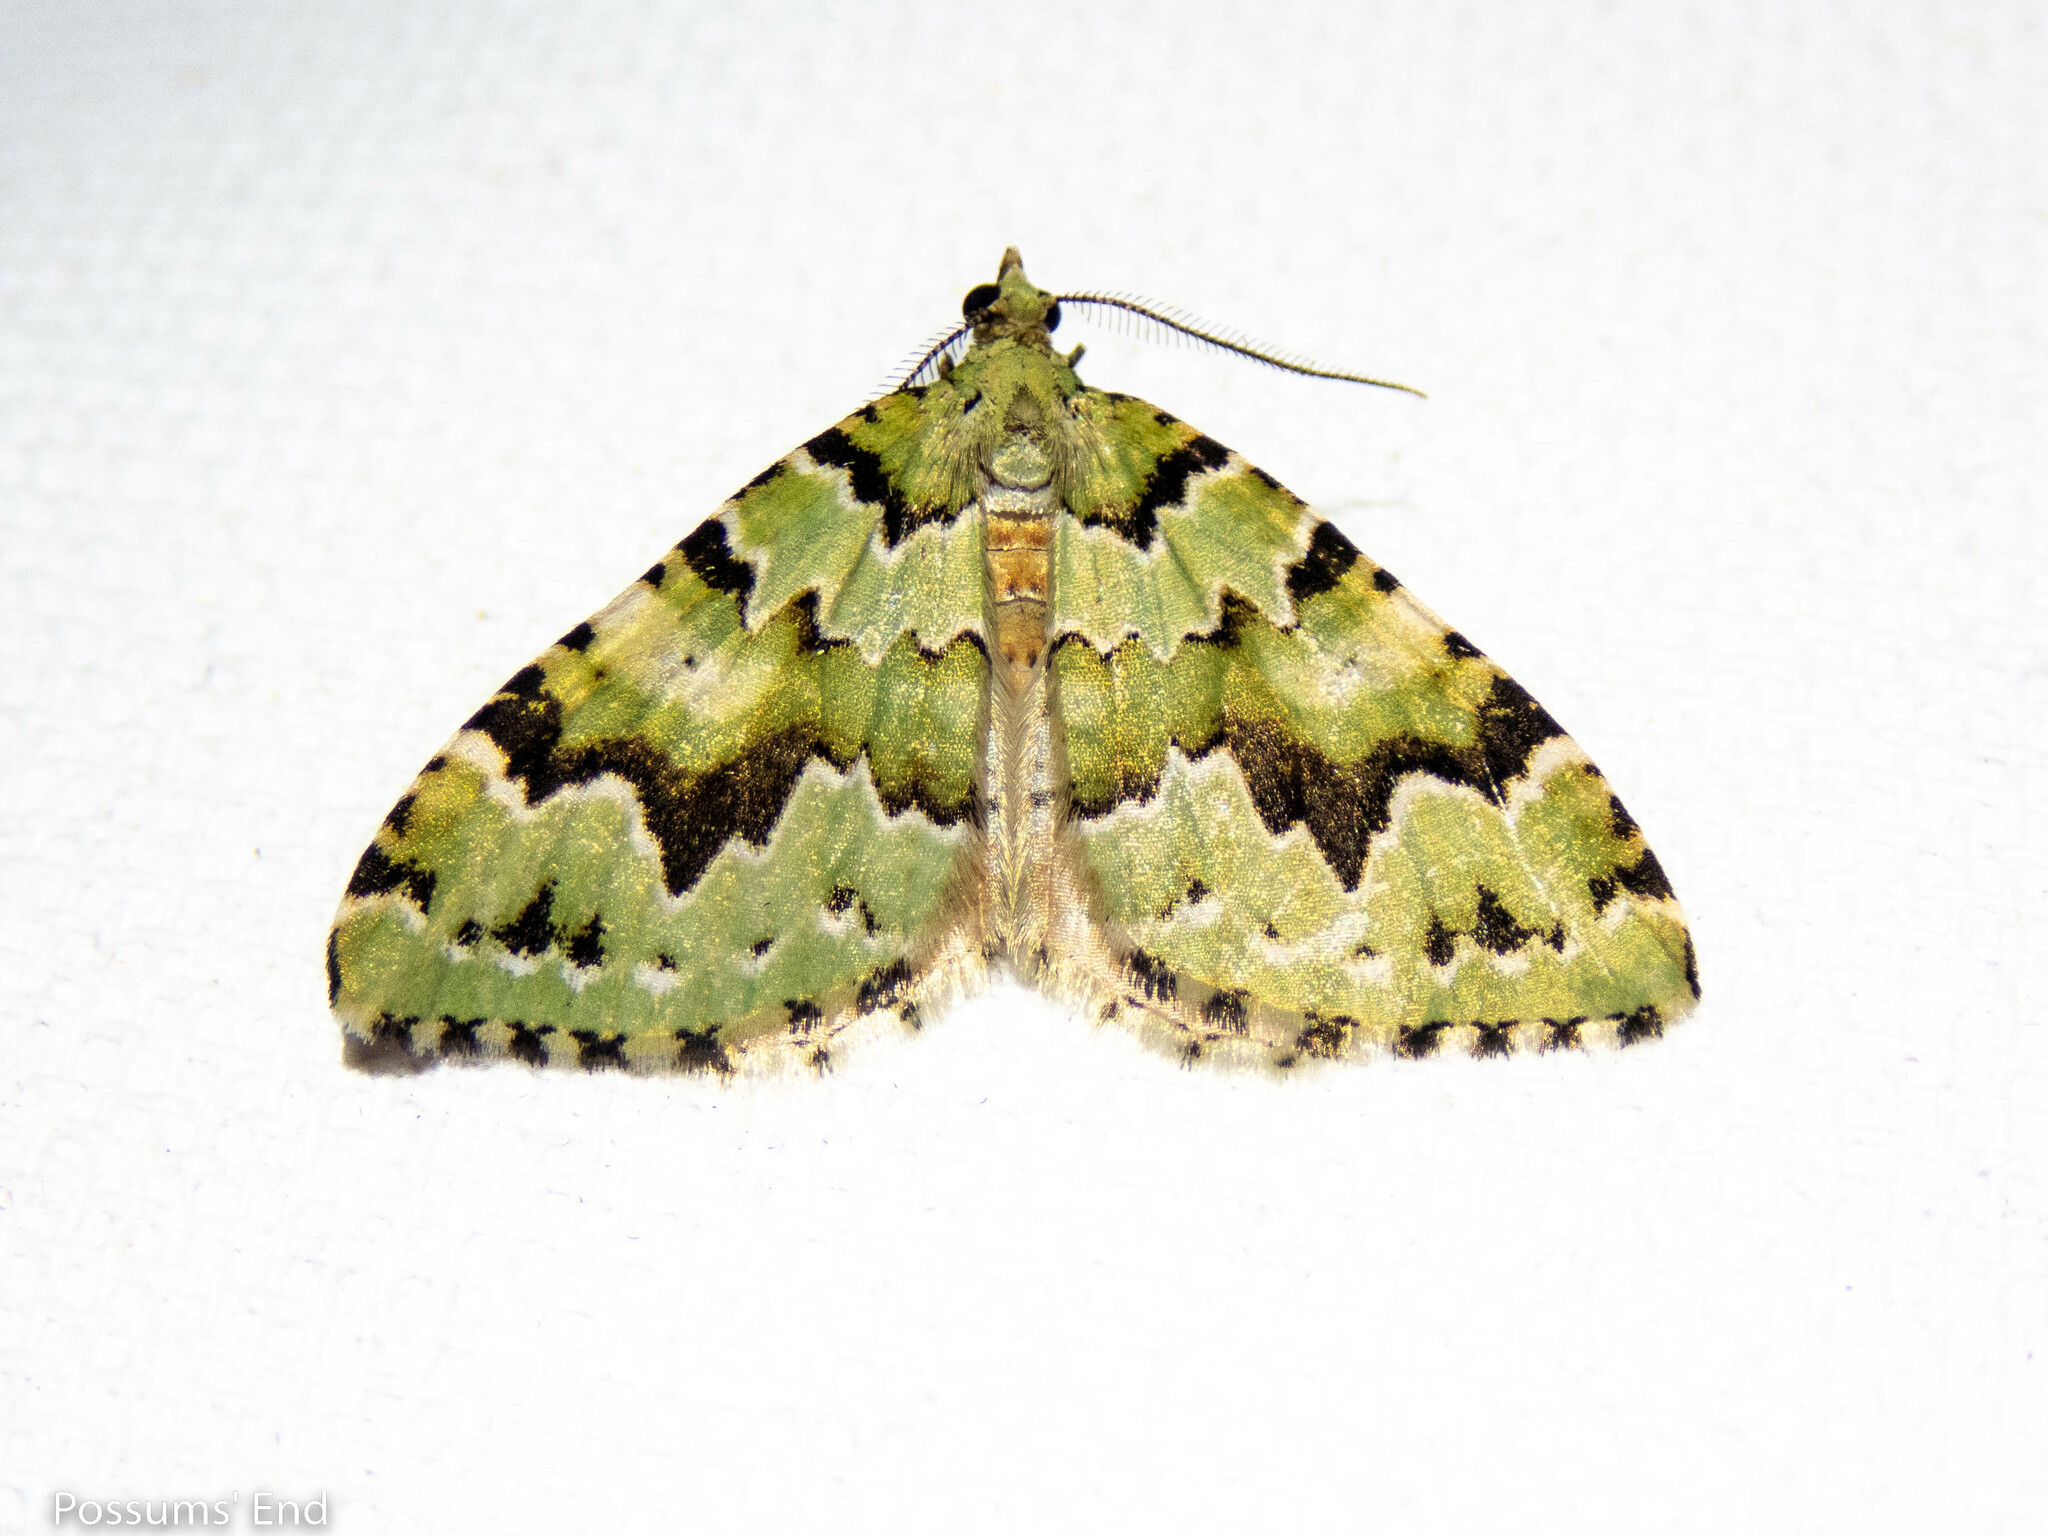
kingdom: Animalia
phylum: Arthropoda
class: Insecta
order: Lepidoptera
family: Geometridae
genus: Asaphodes
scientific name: Asaphodes adonis
